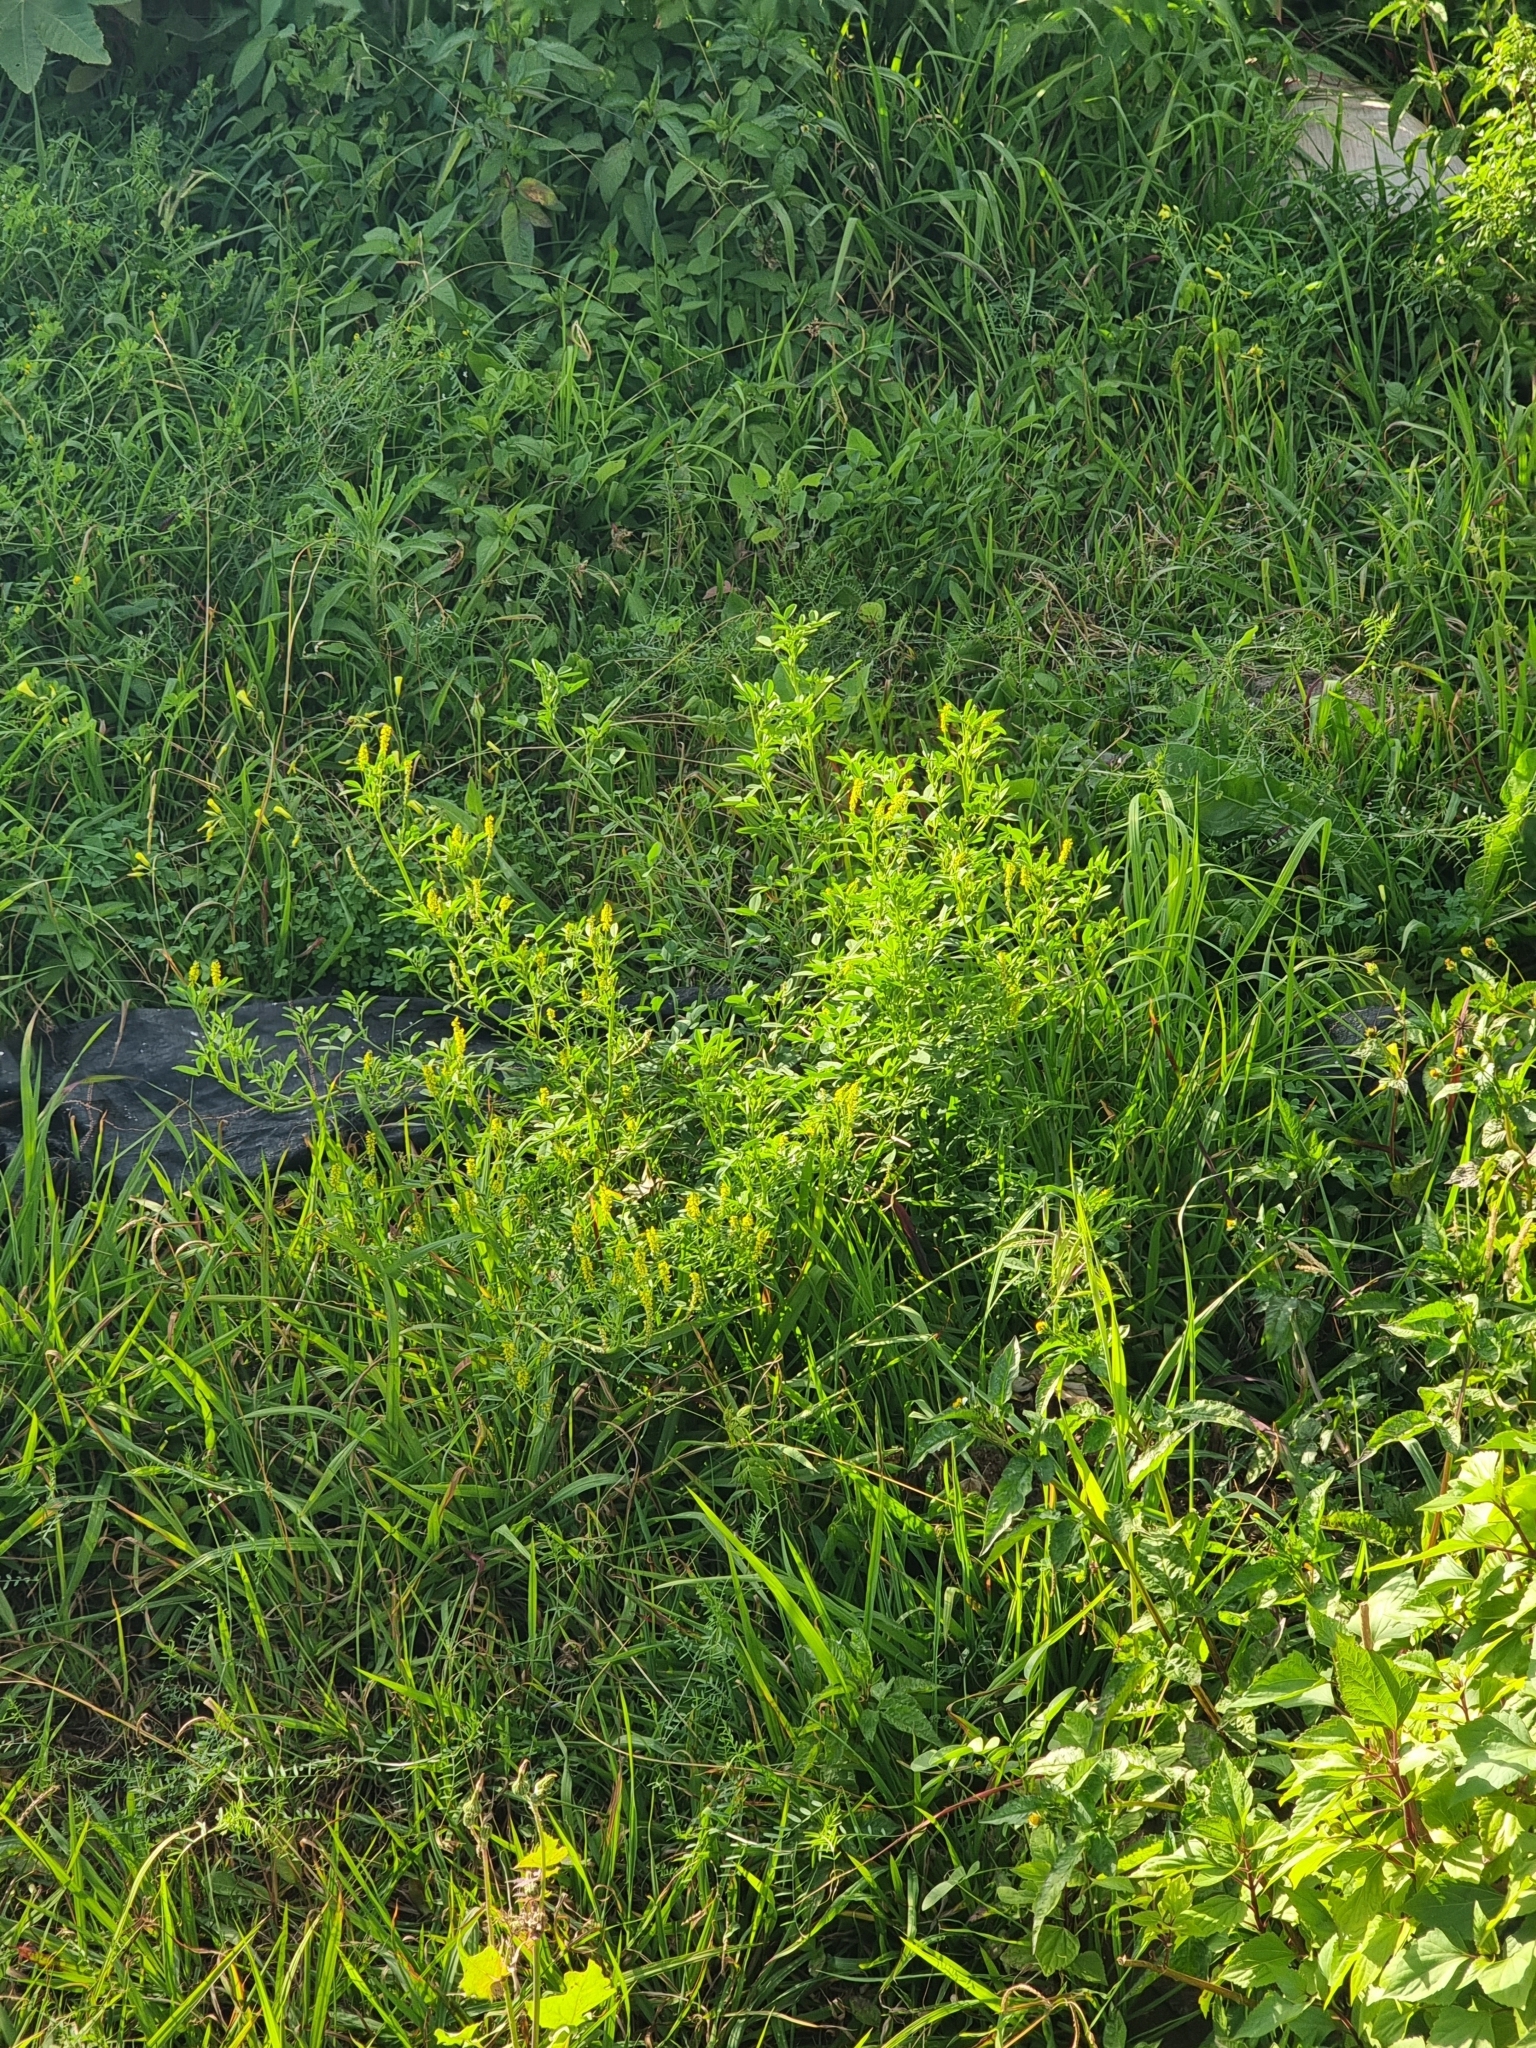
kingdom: Plantae
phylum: Tracheophyta
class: Magnoliopsida
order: Fabales
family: Fabaceae
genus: Melilotus
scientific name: Melilotus indicus
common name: Small melilot
